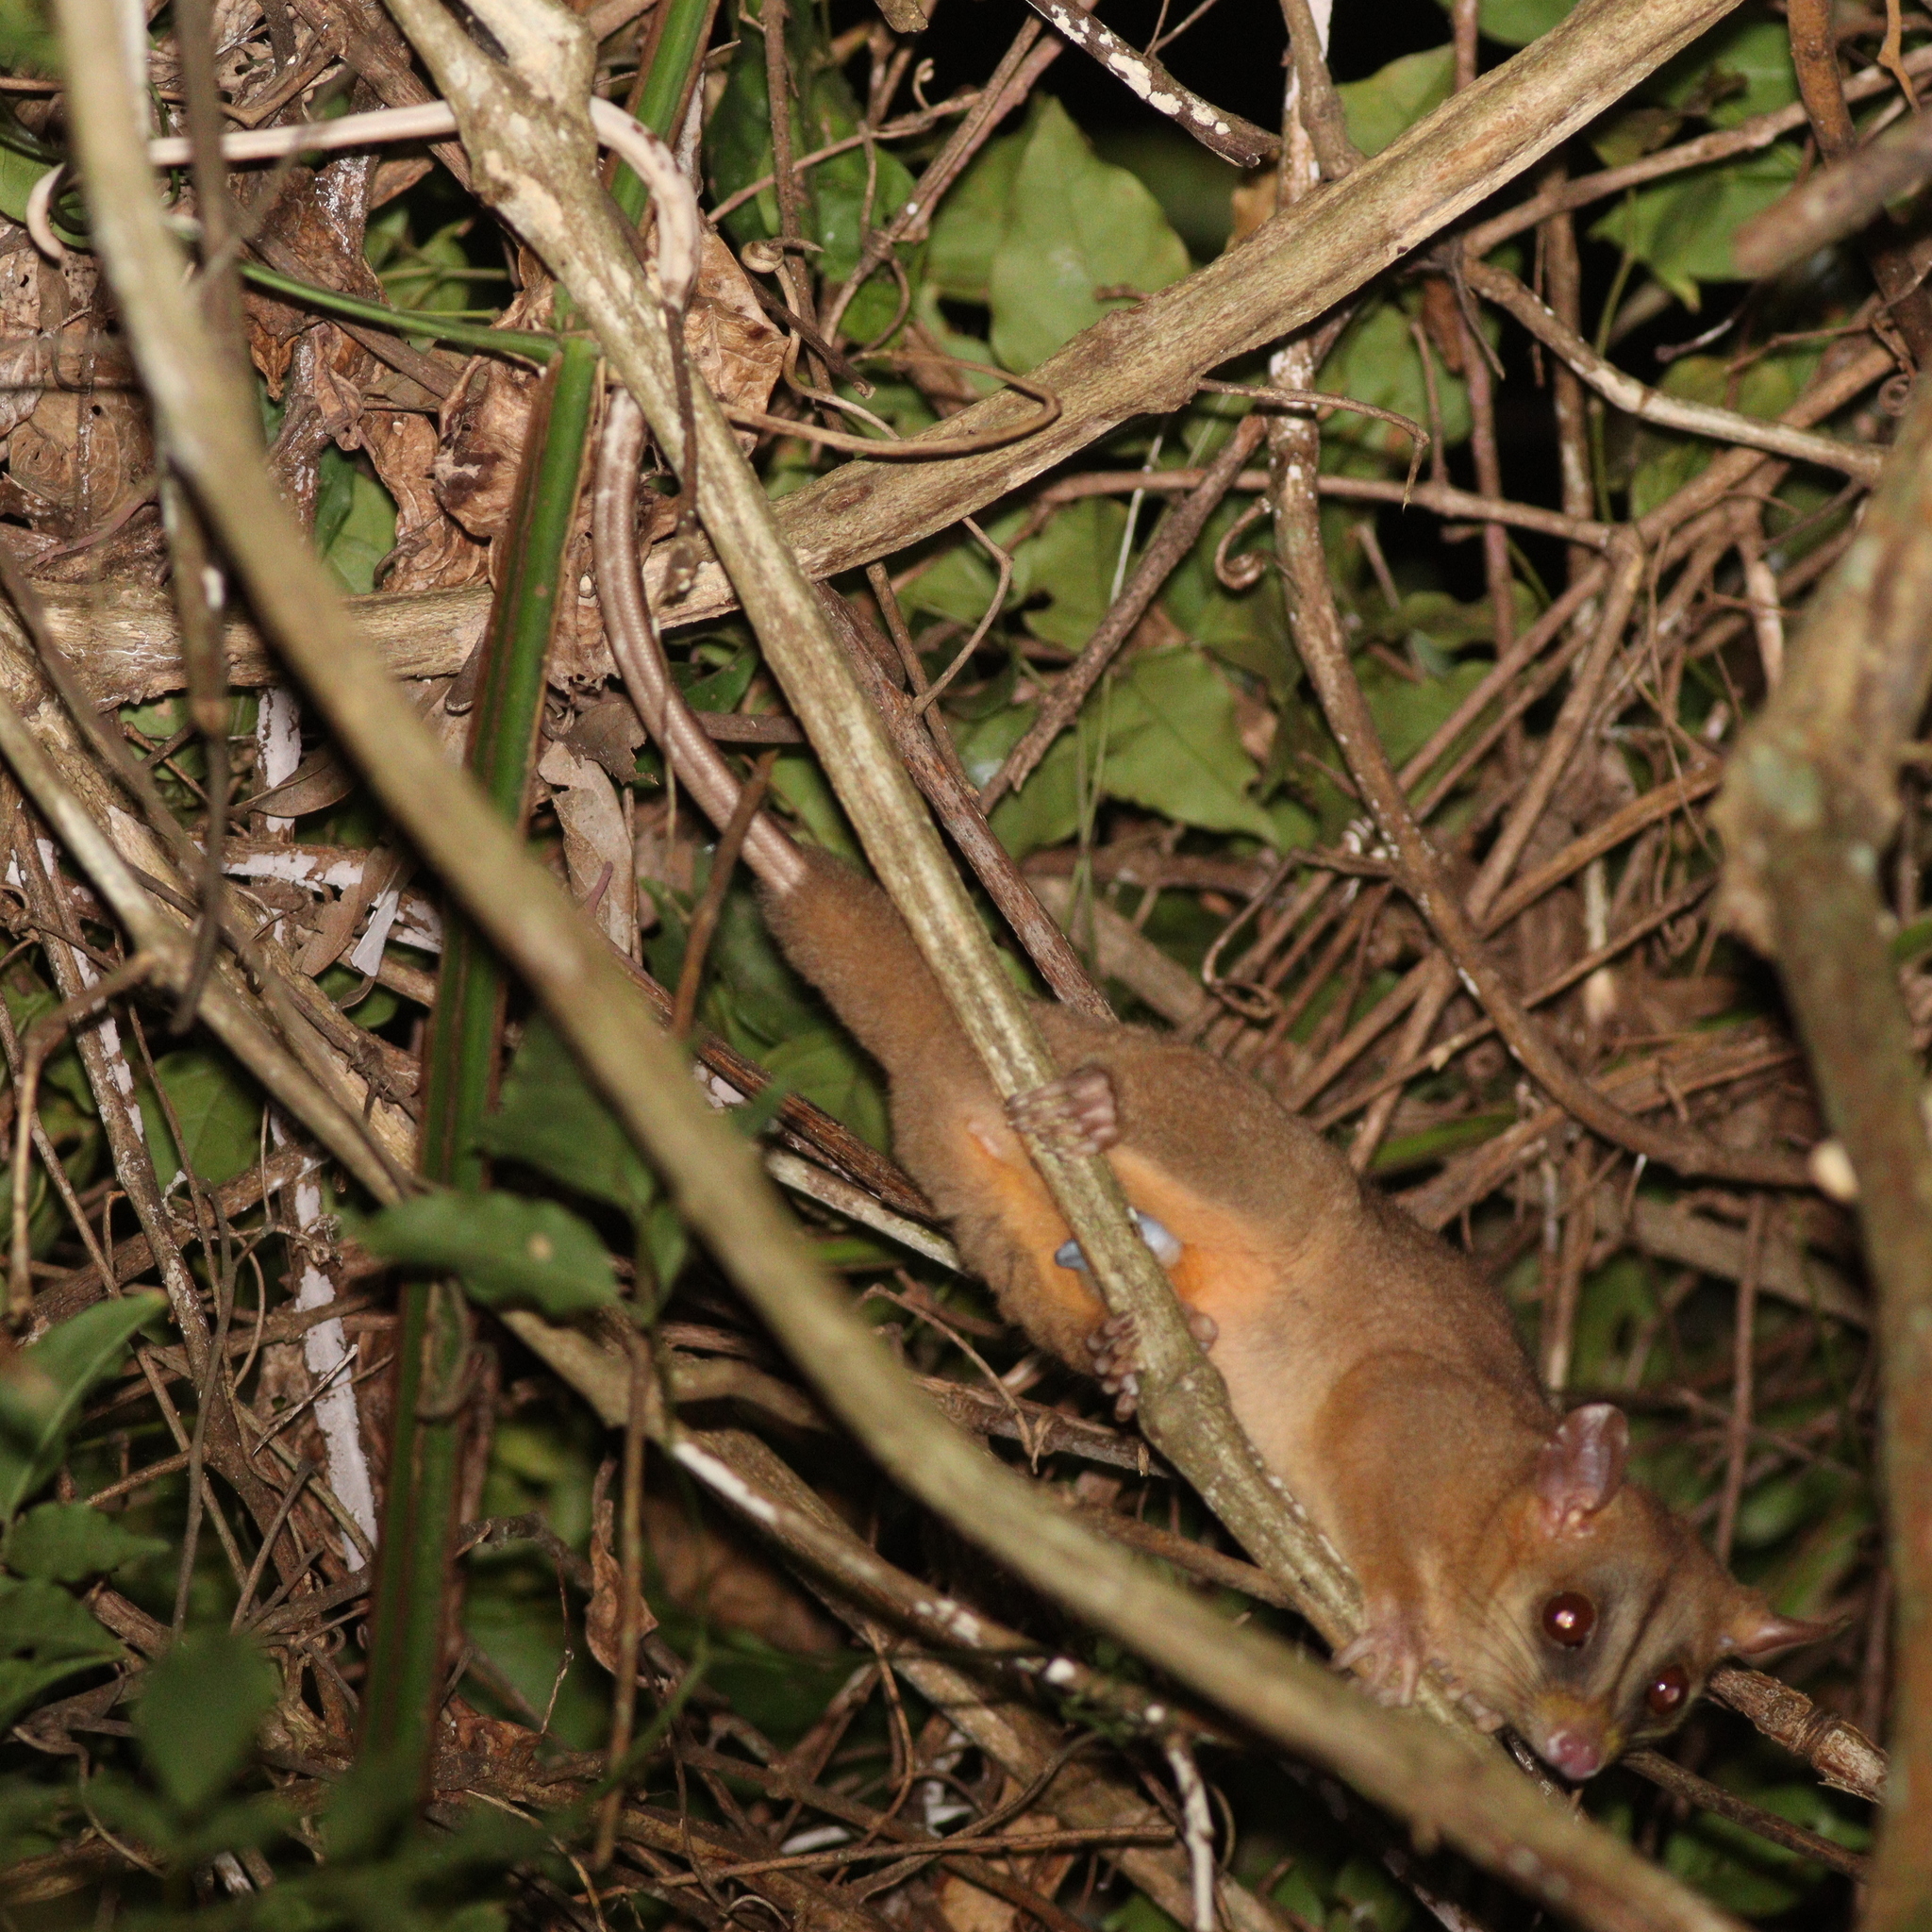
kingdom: Animalia
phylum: Chordata
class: Mammalia
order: Didelphimorphia
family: Didelphidae
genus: Caluromys
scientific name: Caluromys philander
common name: Bare-tailed woolly opossum
